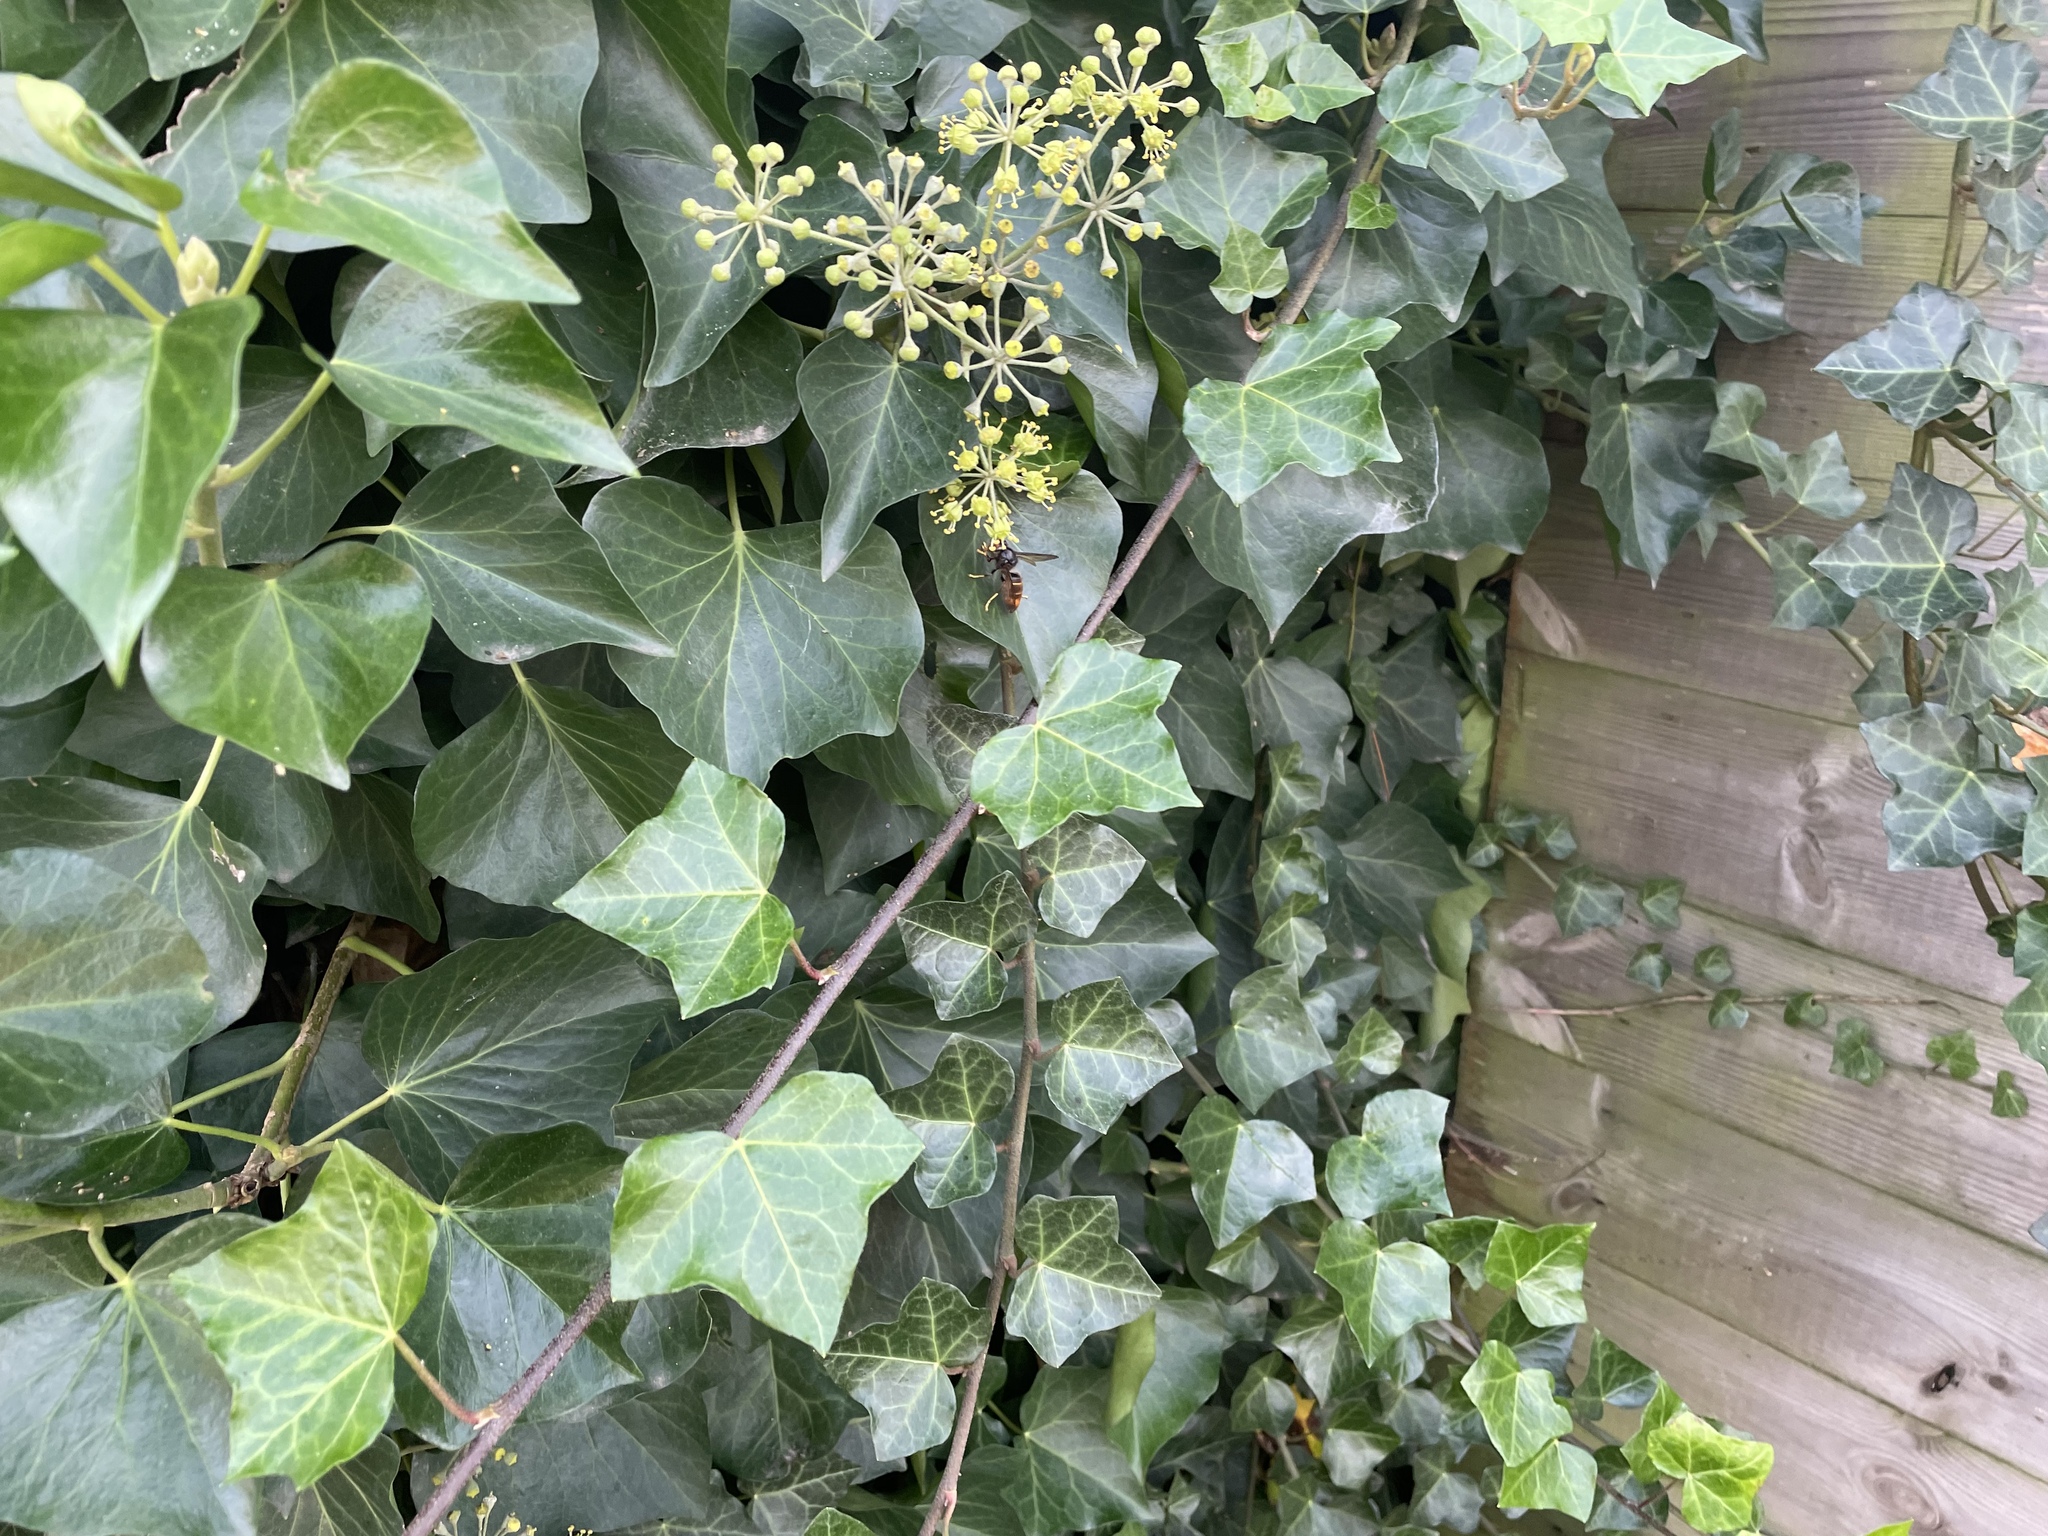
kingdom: Animalia
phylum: Arthropoda
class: Insecta
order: Hymenoptera
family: Vespidae
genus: Vespa
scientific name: Vespa velutina
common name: Asian hornet
